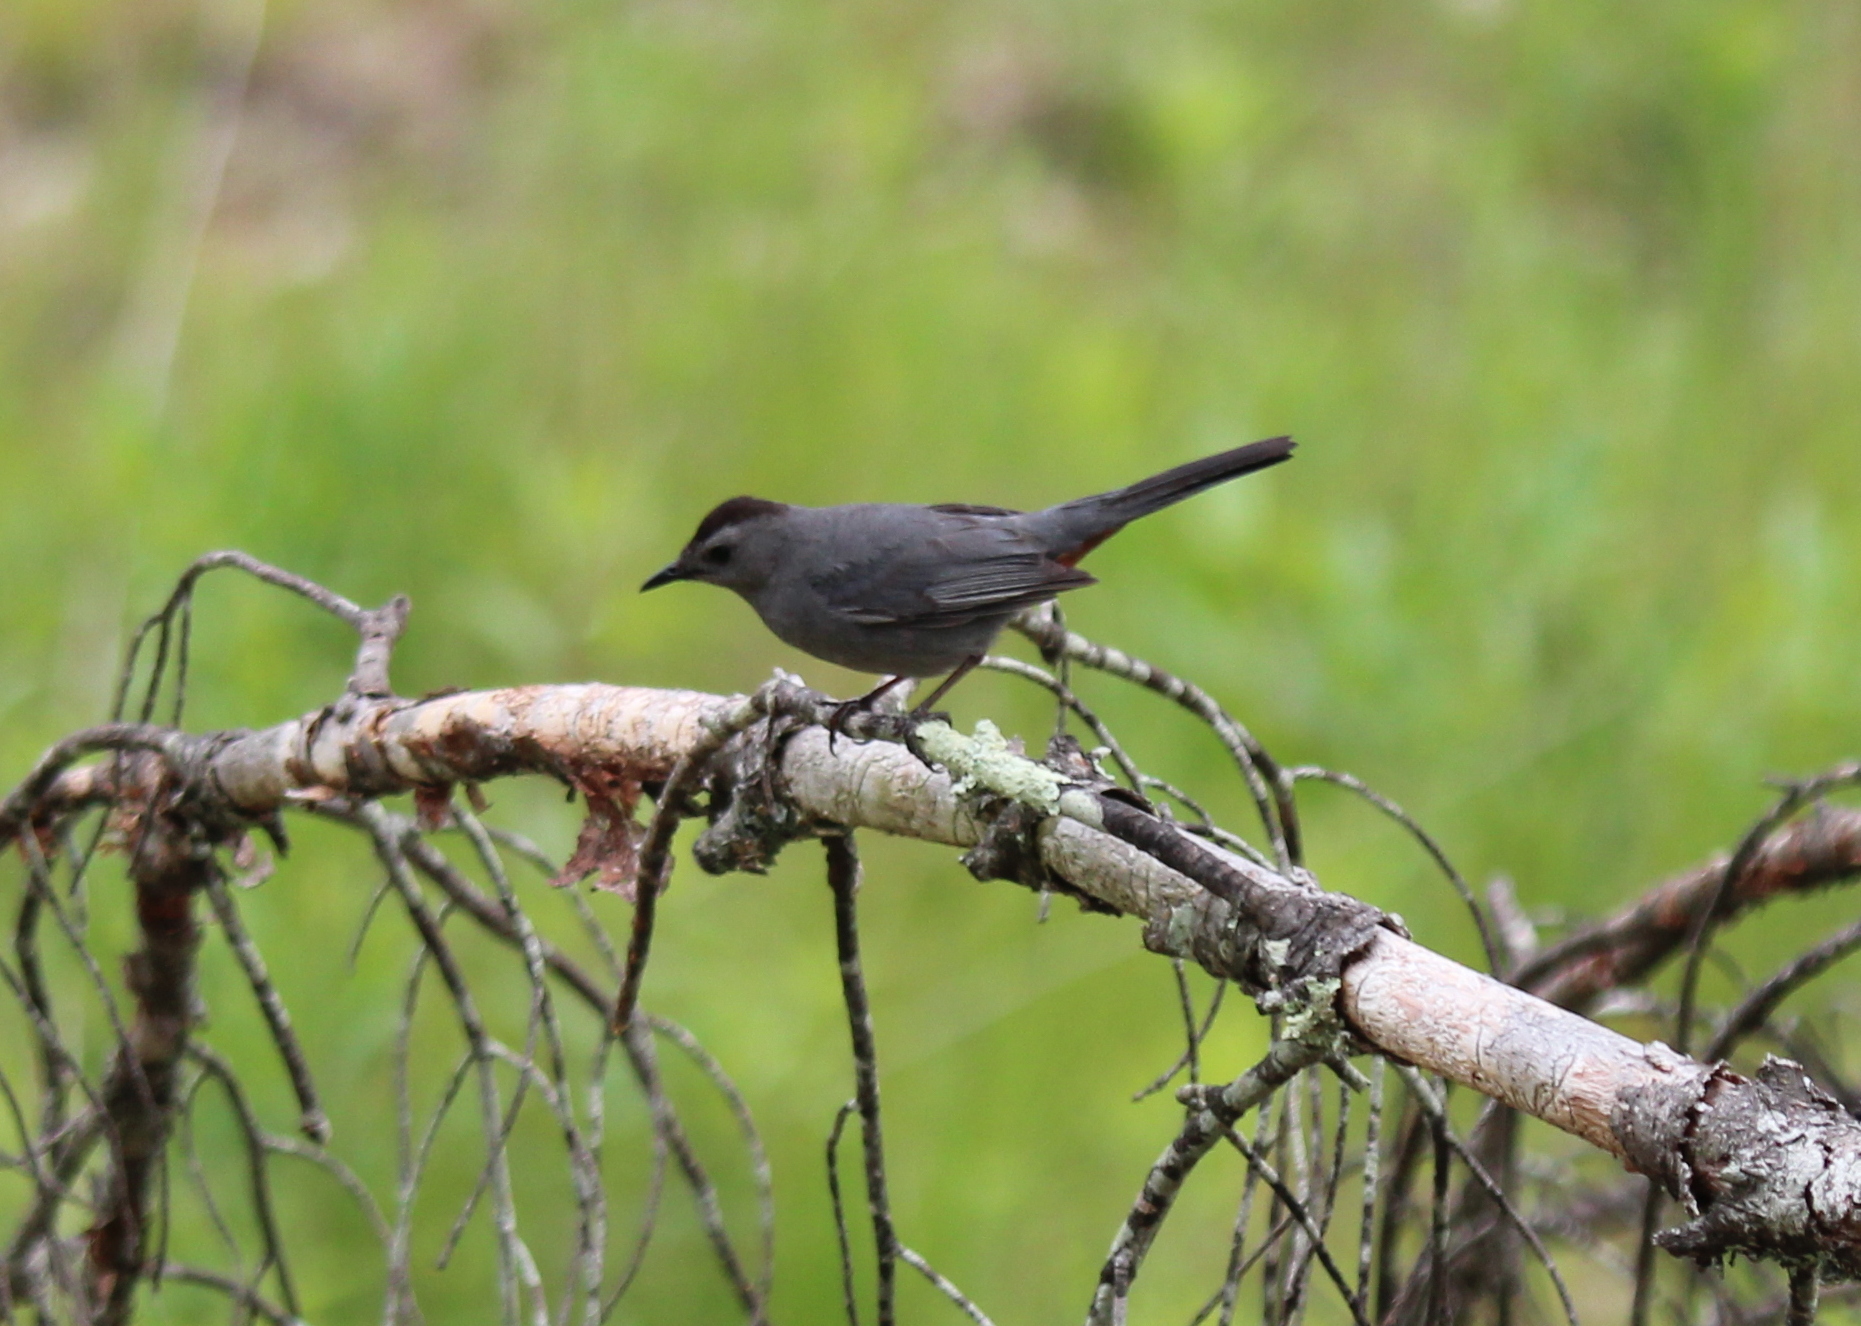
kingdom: Animalia
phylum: Chordata
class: Aves
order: Passeriformes
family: Mimidae
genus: Dumetella
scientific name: Dumetella carolinensis
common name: Gray catbird
